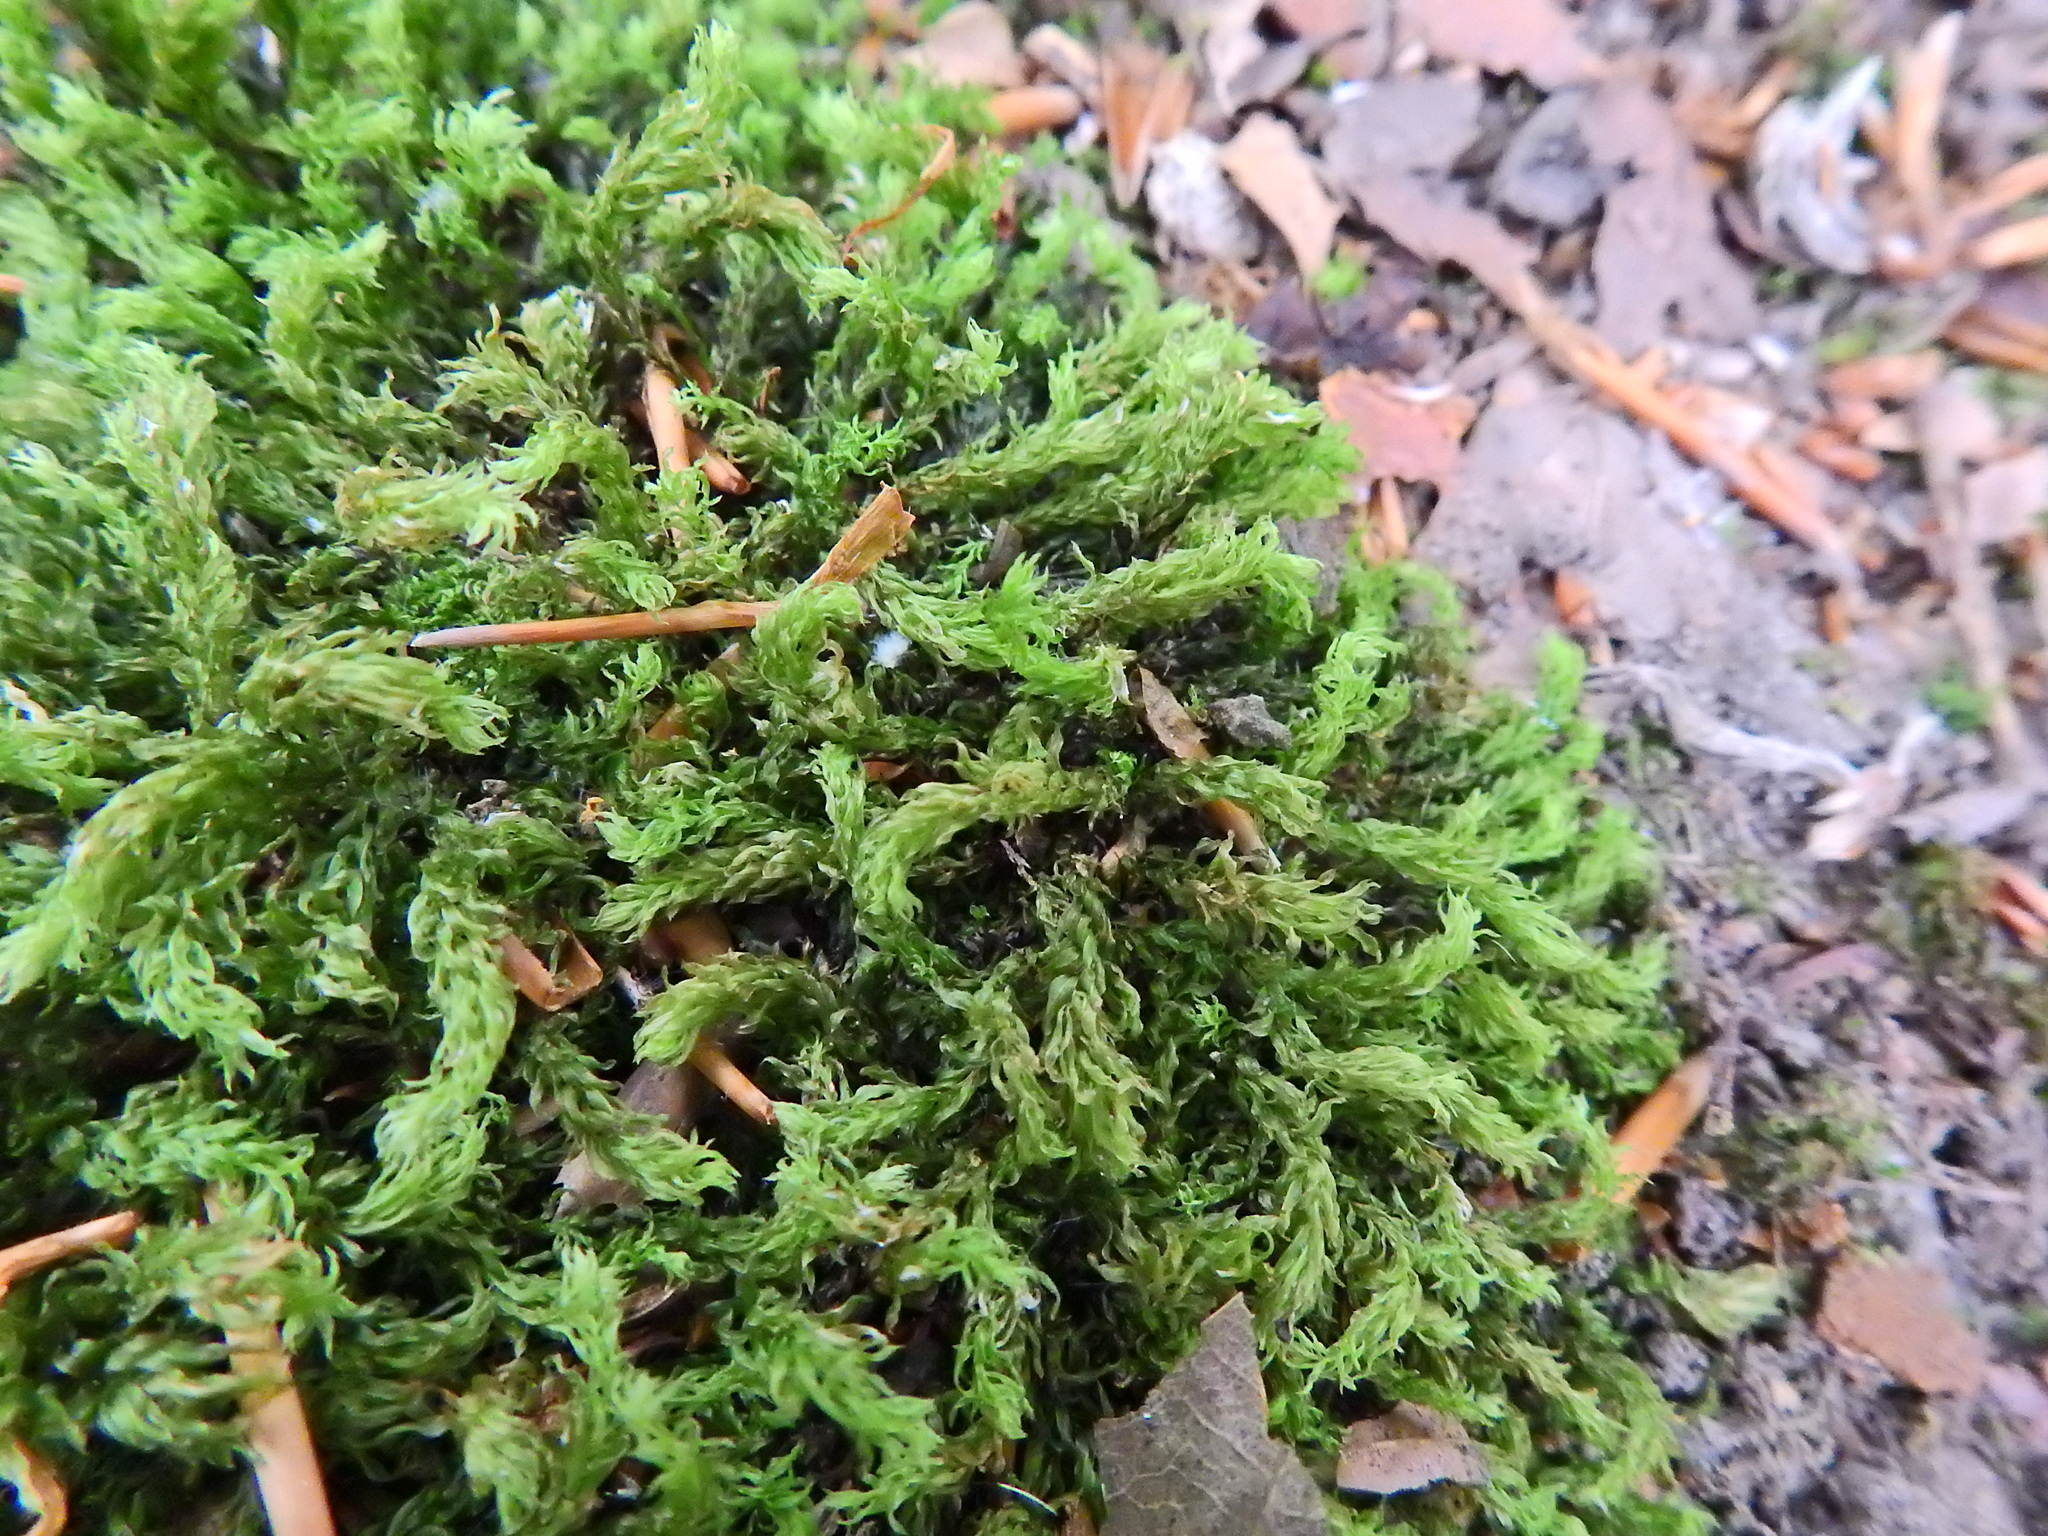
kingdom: Plantae
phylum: Bryophyta
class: Bryopsida
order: Bryales
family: Mniaceae
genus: Mnium
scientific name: Mnium hornum
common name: Swan's-neck leafy moss
